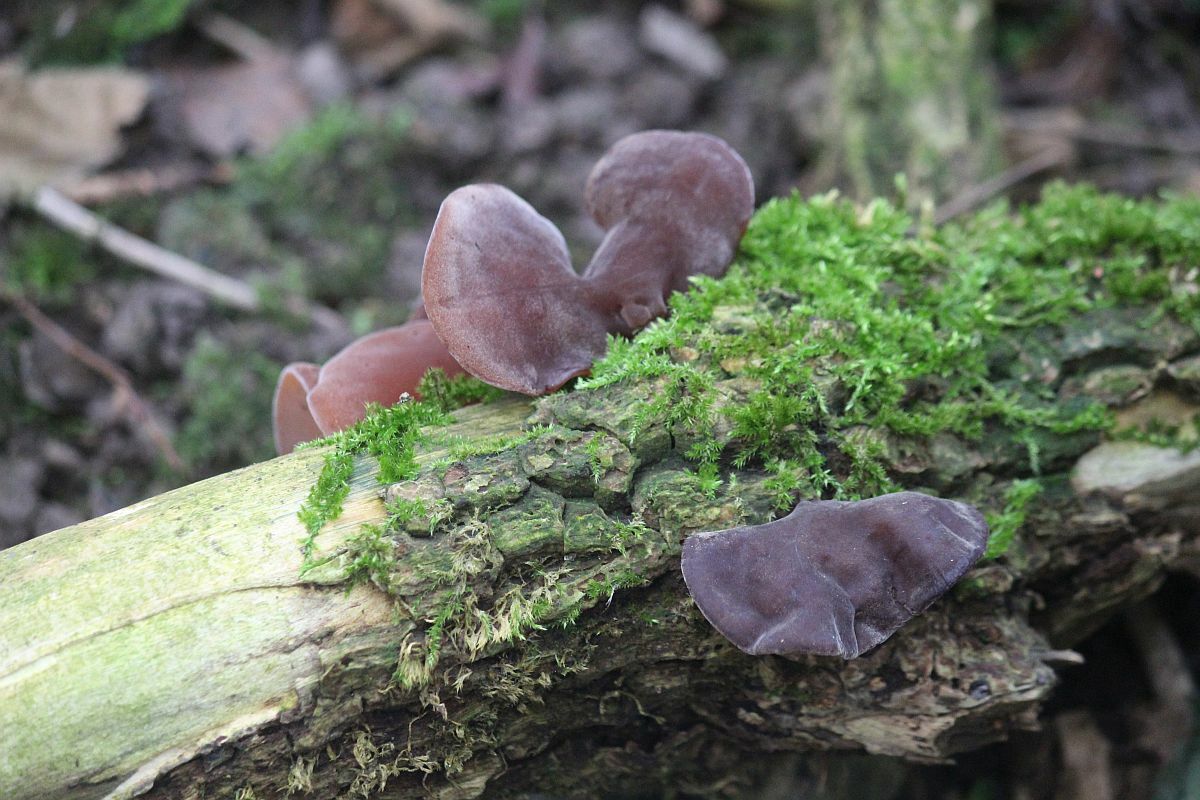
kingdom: Fungi
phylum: Basidiomycota
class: Agaricomycetes
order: Auriculariales
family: Auriculariaceae
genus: Auricularia
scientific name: Auricularia auricula-judae
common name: Jelly ear
